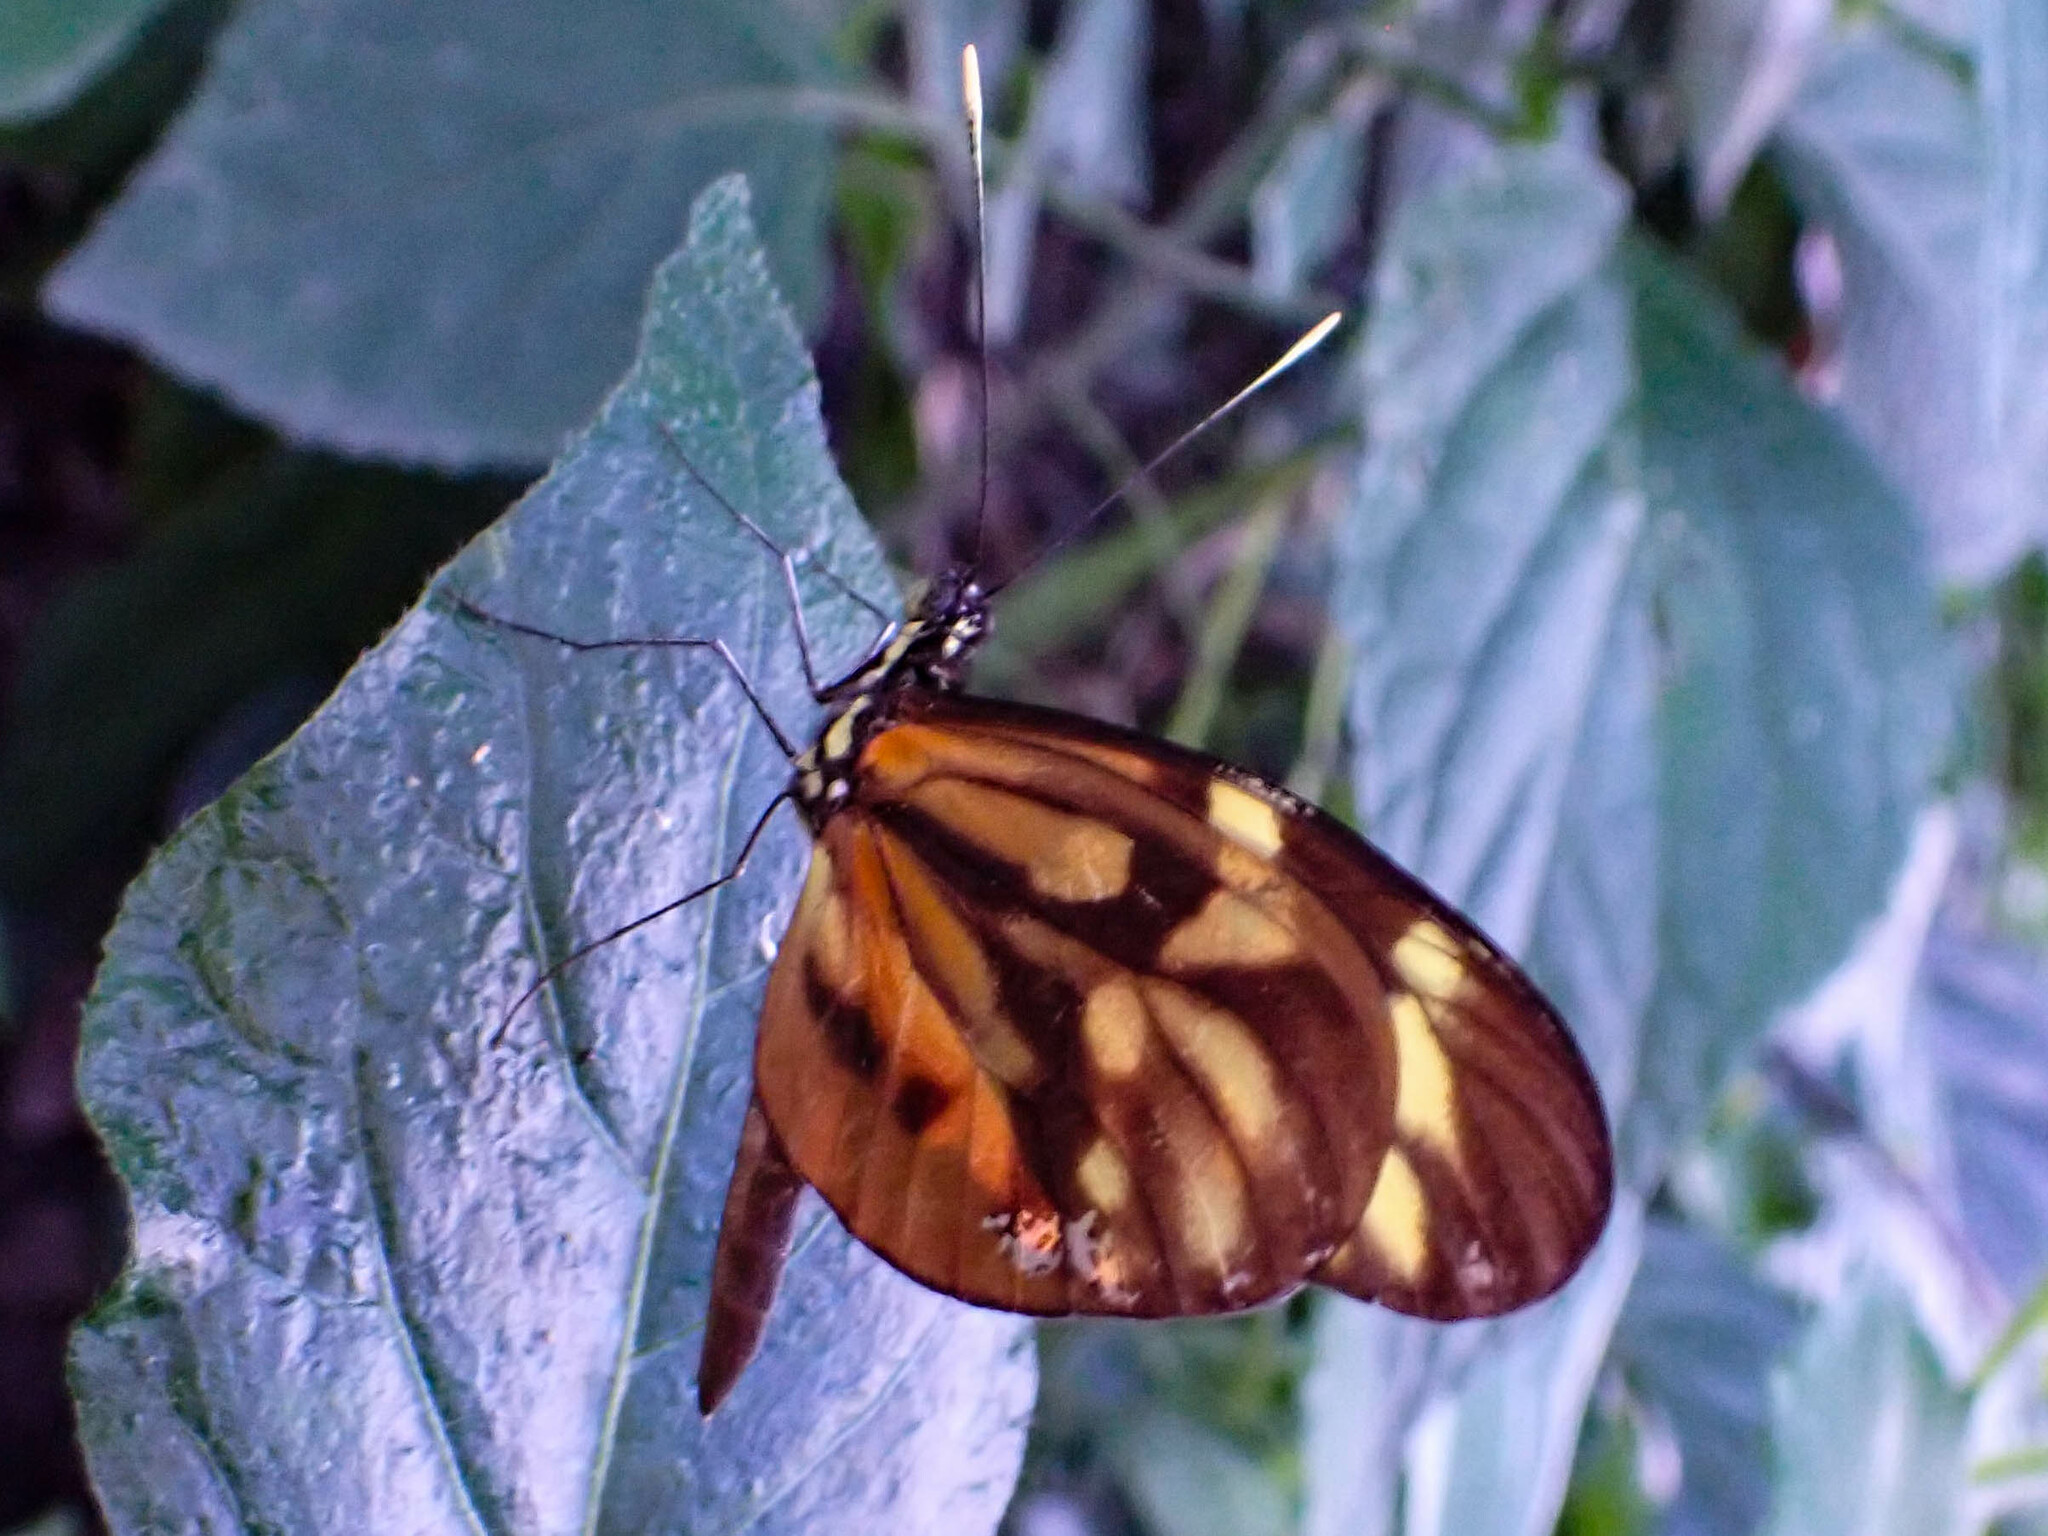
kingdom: Animalia
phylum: Arthropoda
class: Insecta
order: Lepidoptera
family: Pieridae
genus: Dismorphia
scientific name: Dismorphia amphione
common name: Tiger mimic-white
